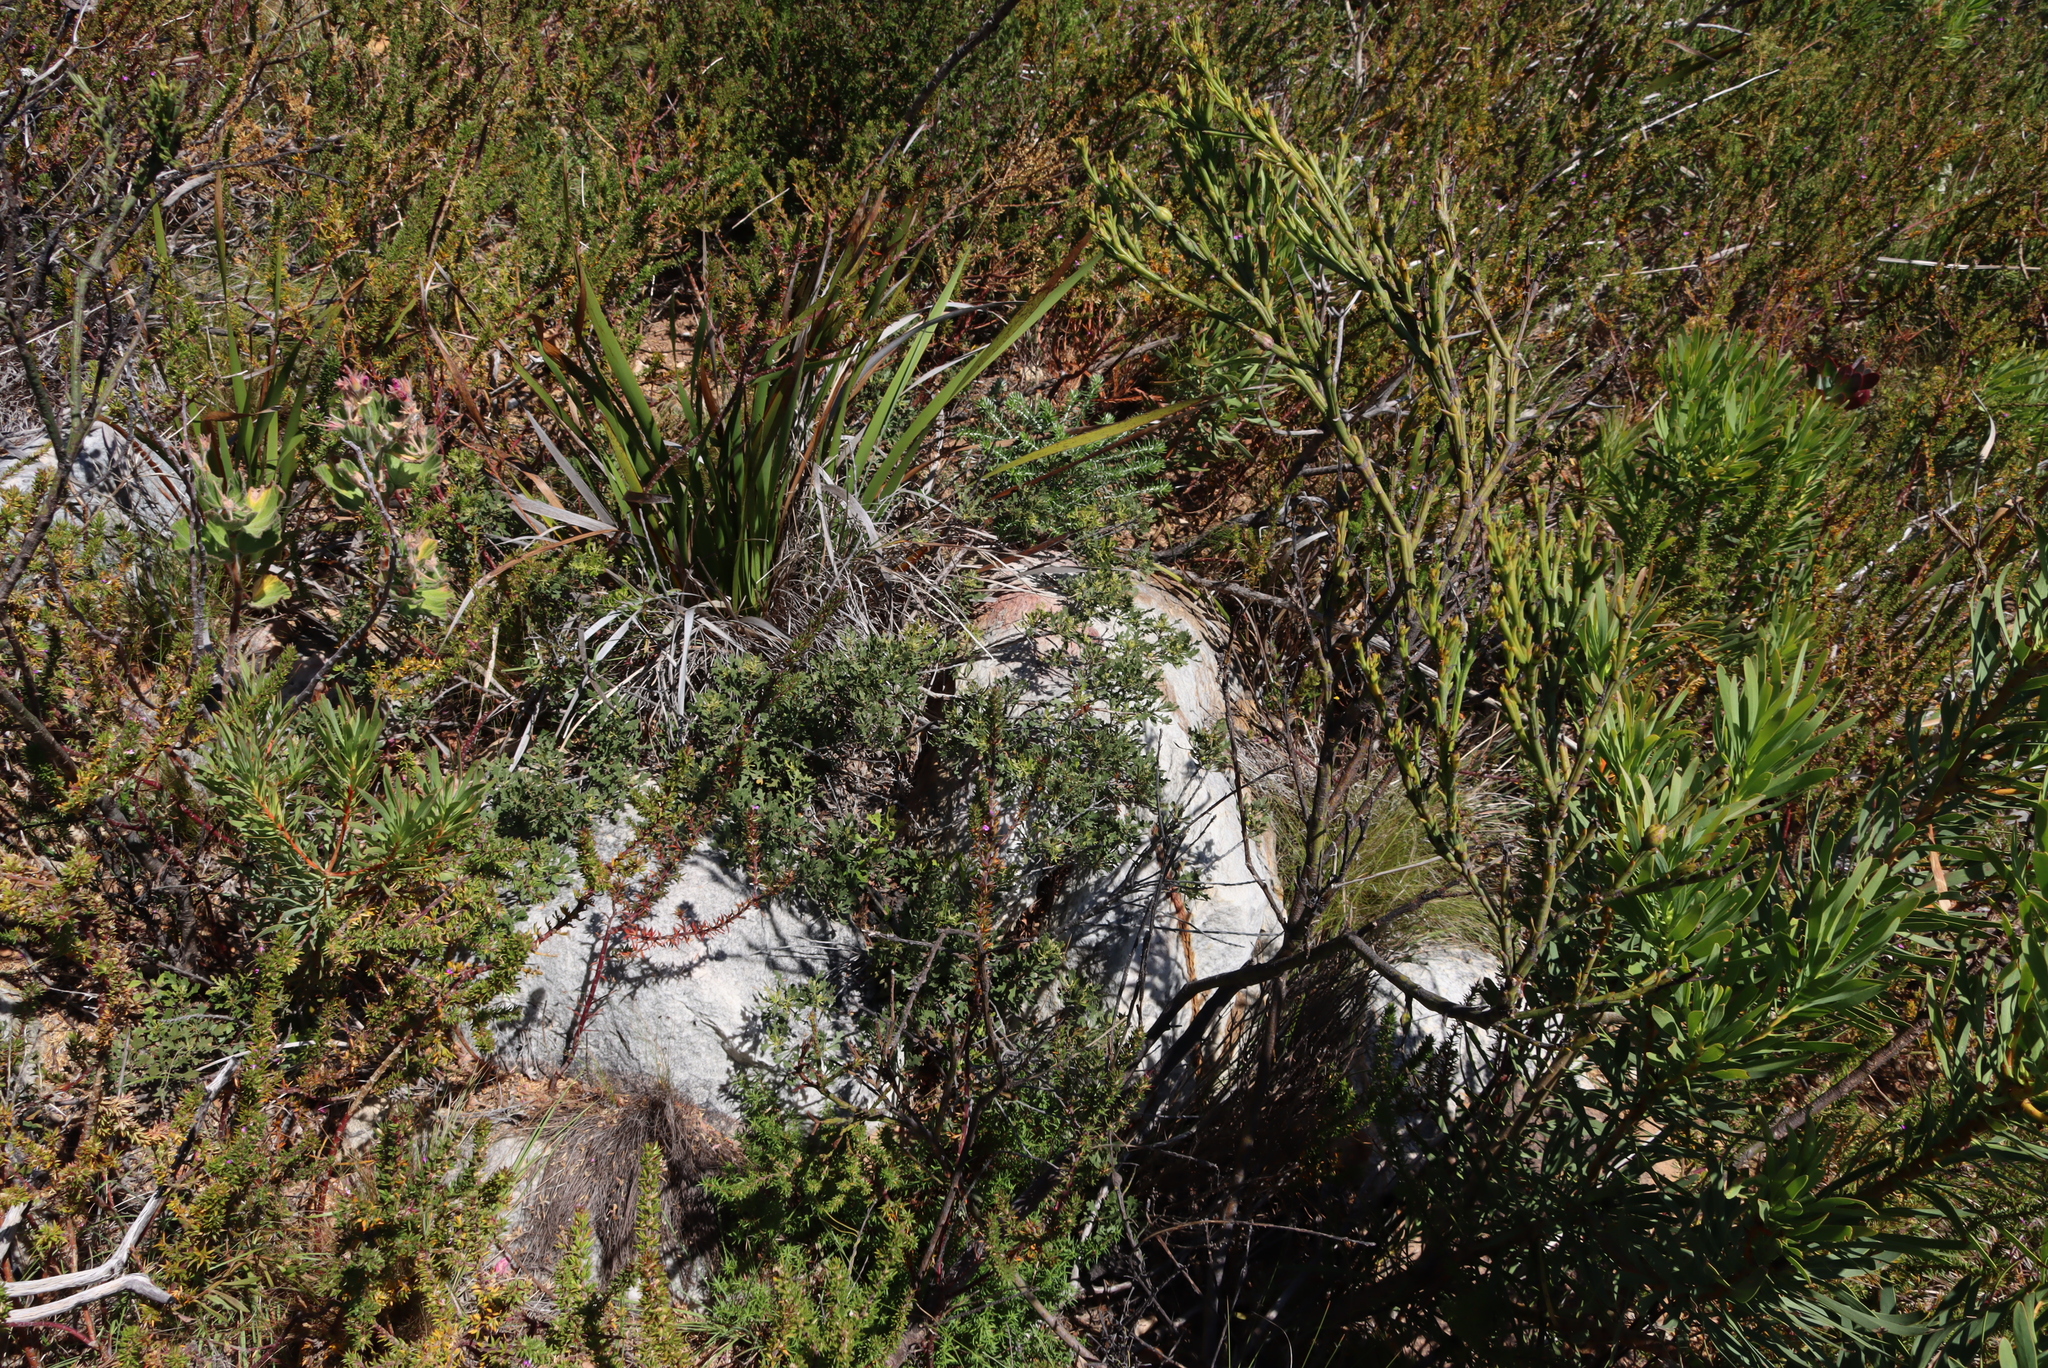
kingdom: Plantae
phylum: Tracheophyta
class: Magnoliopsida
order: Fagales
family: Myricaceae
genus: Morella
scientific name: Morella quercifolia
